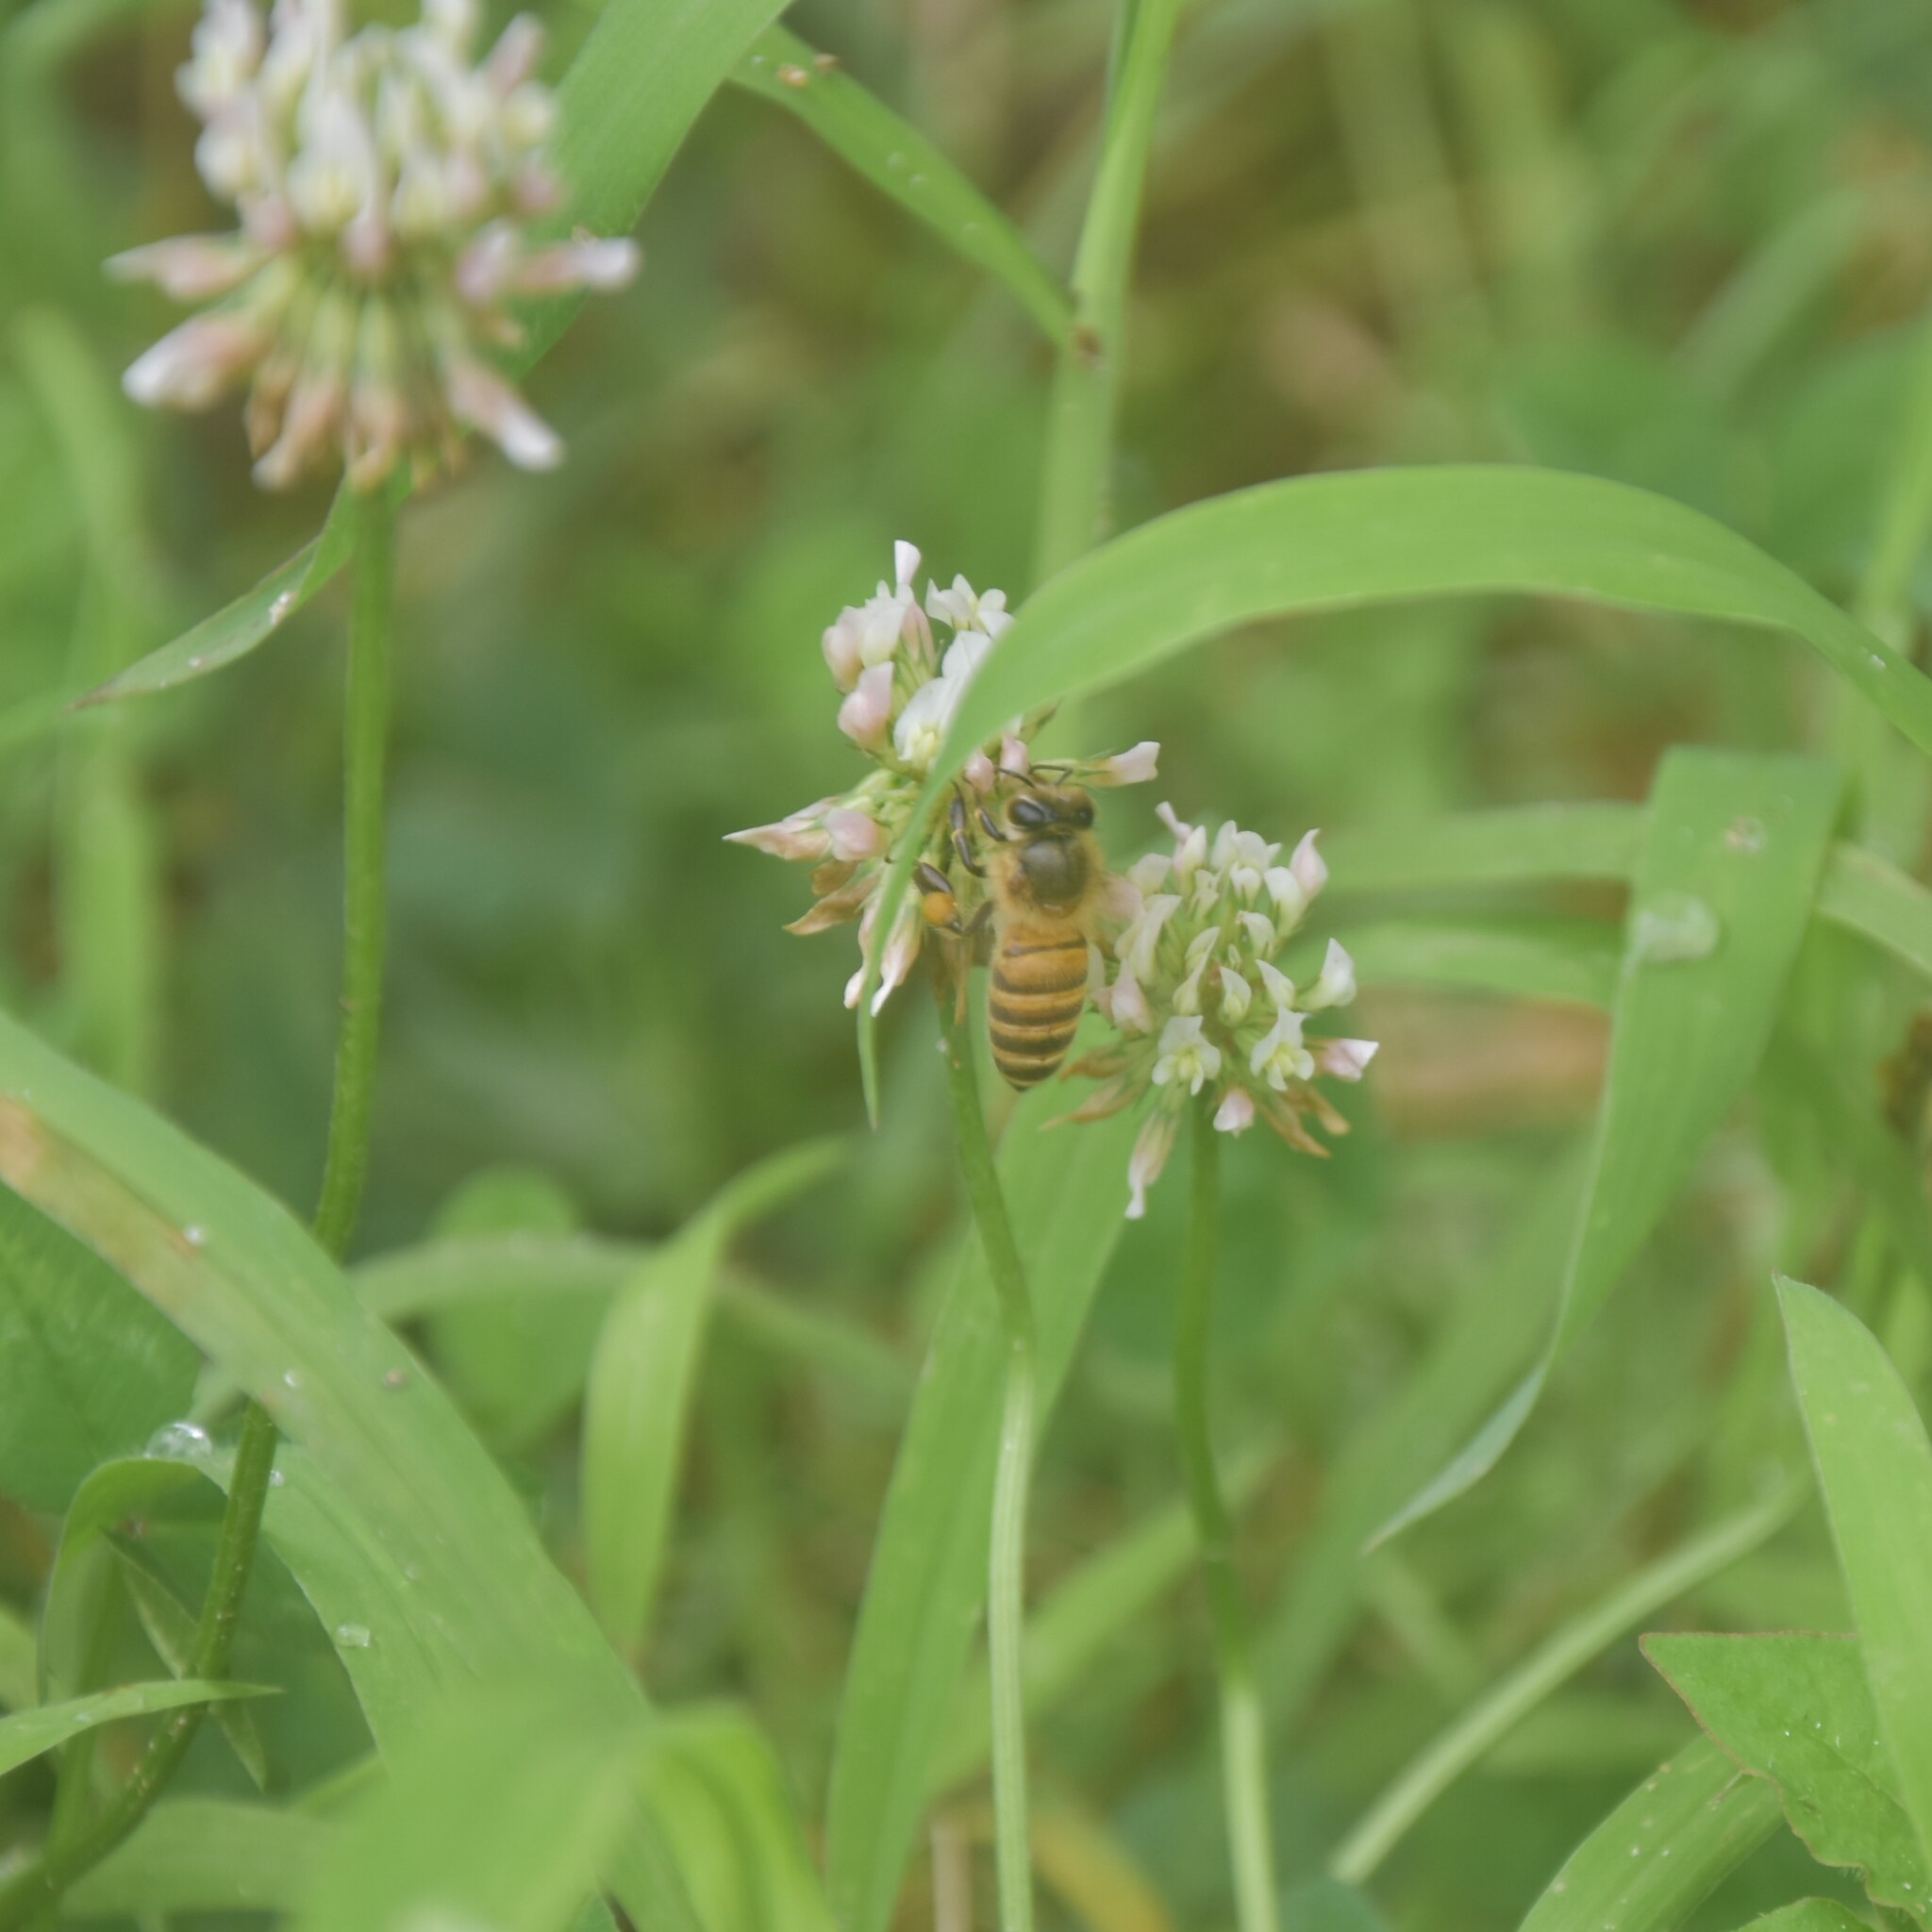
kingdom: Animalia
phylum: Arthropoda
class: Insecta
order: Hymenoptera
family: Apidae
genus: Apis
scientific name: Apis cerana
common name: Honey bee
